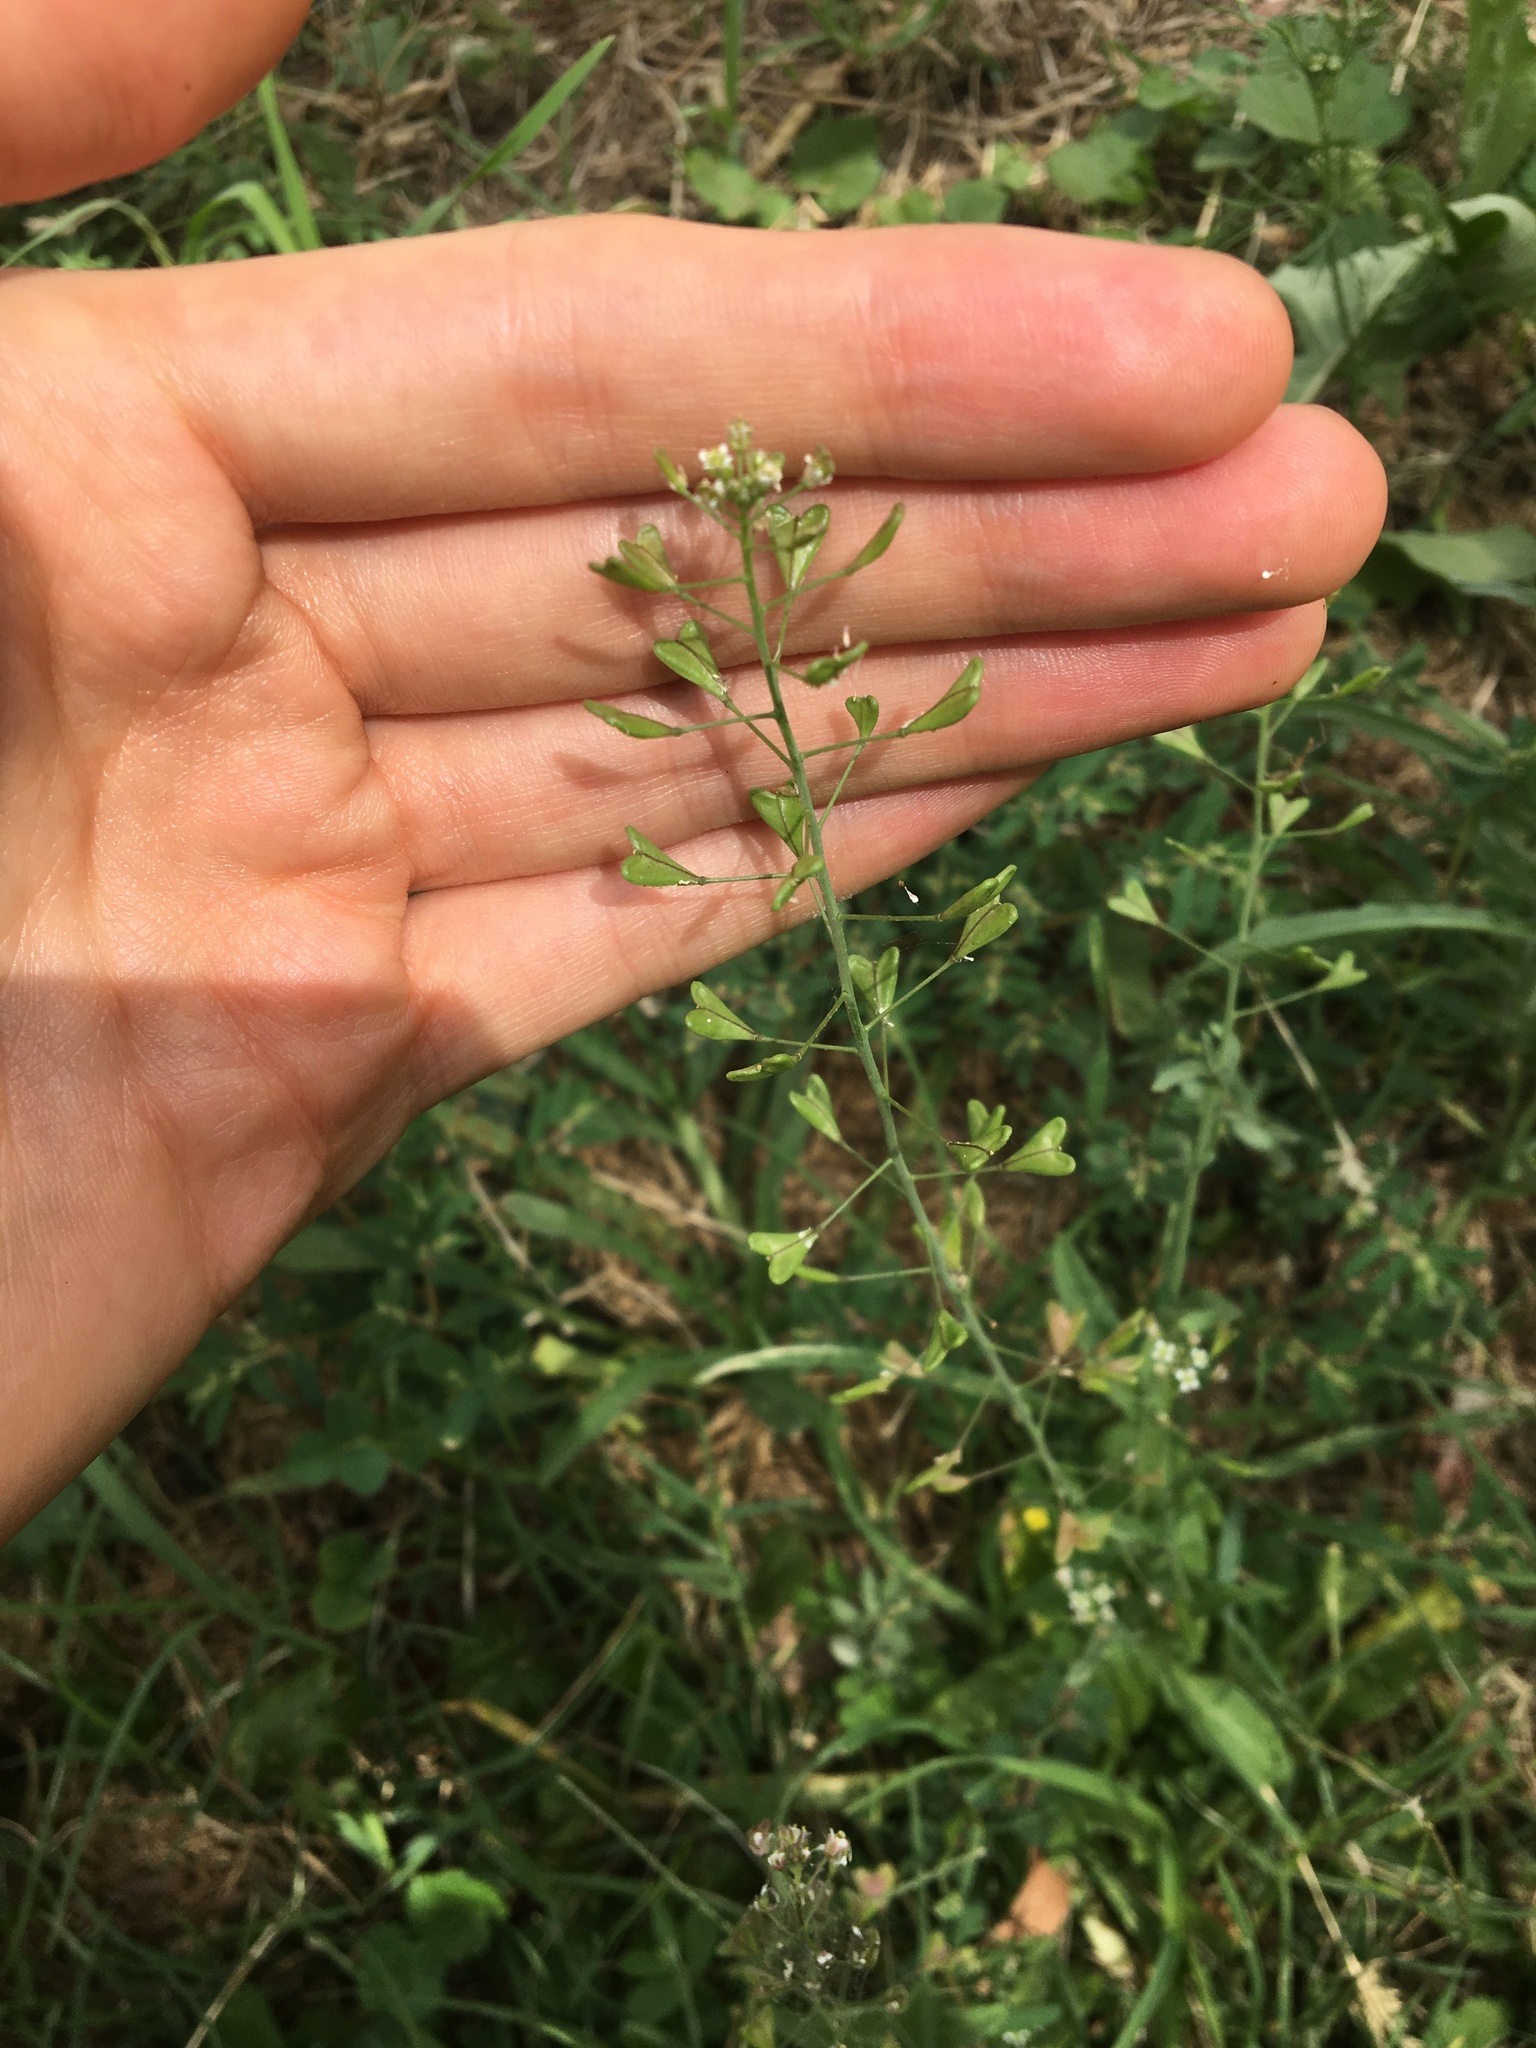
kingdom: Plantae
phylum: Tracheophyta
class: Magnoliopsida
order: Brassicales
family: Brassicaceae
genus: Capsella
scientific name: Capsella bursa-pastoris
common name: Shepherd's purse
